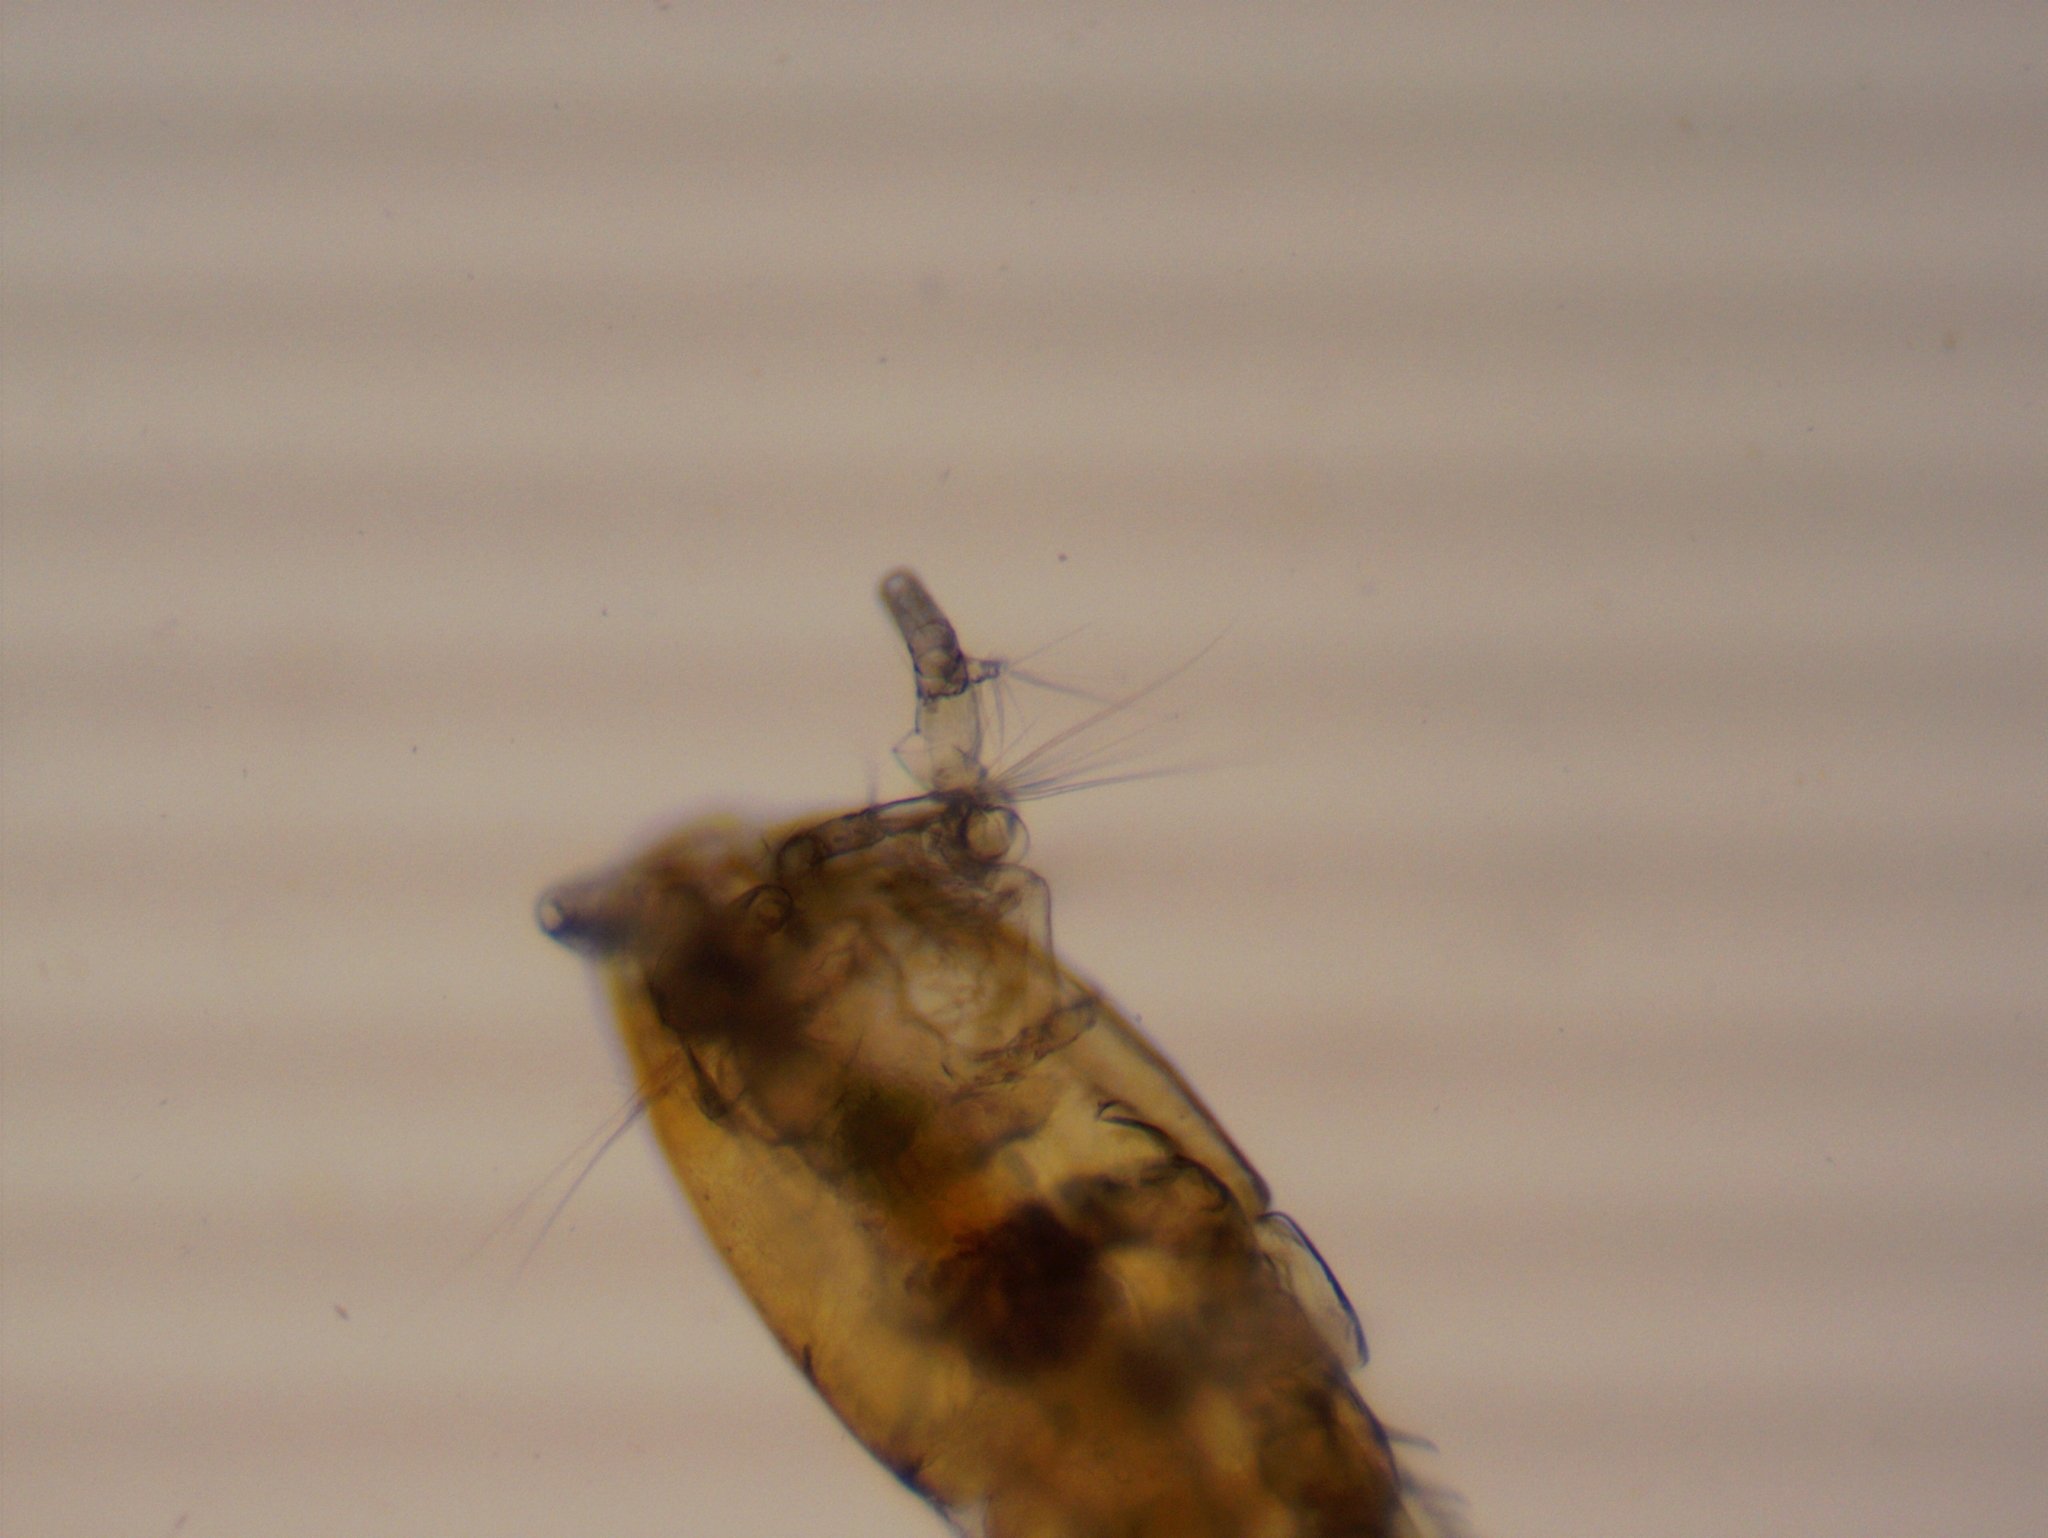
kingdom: Animalia
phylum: Arthropoda
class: Copepoda
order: Cyclopoida
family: Cyclopidae
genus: Eucyclops
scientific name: Eucyclops
